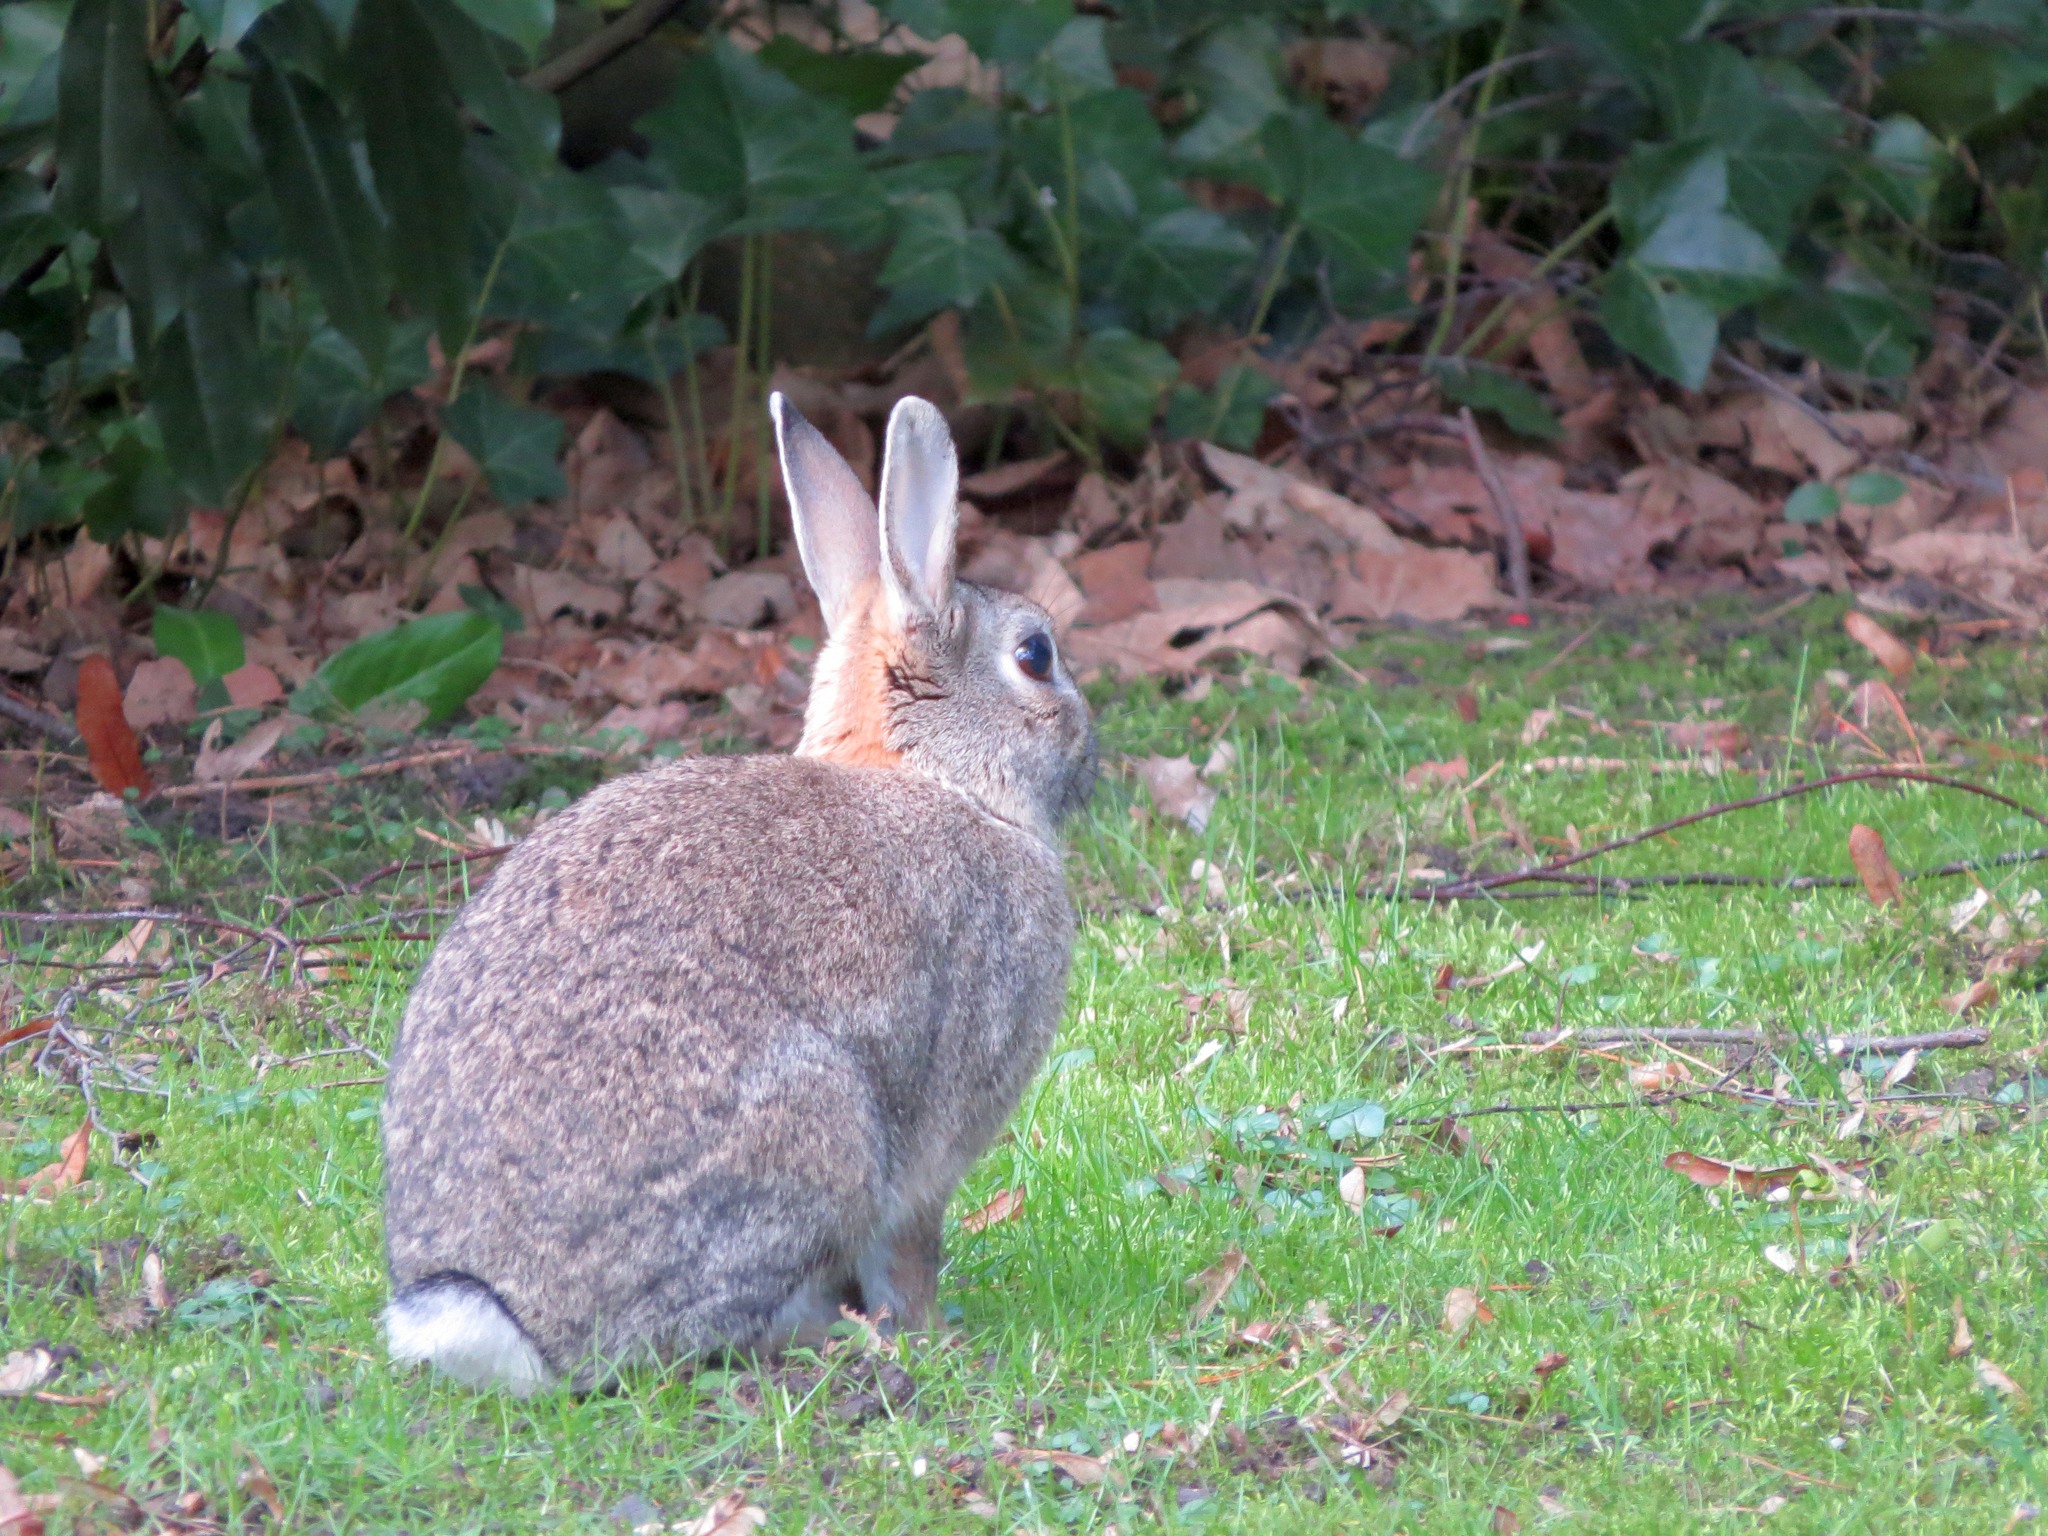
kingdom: Animalia
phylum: Chordata
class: Mammalia
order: Lagomorpha
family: Leporidae
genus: Oryctolagus
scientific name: Oryctolagus cuniculus
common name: European rabbit
